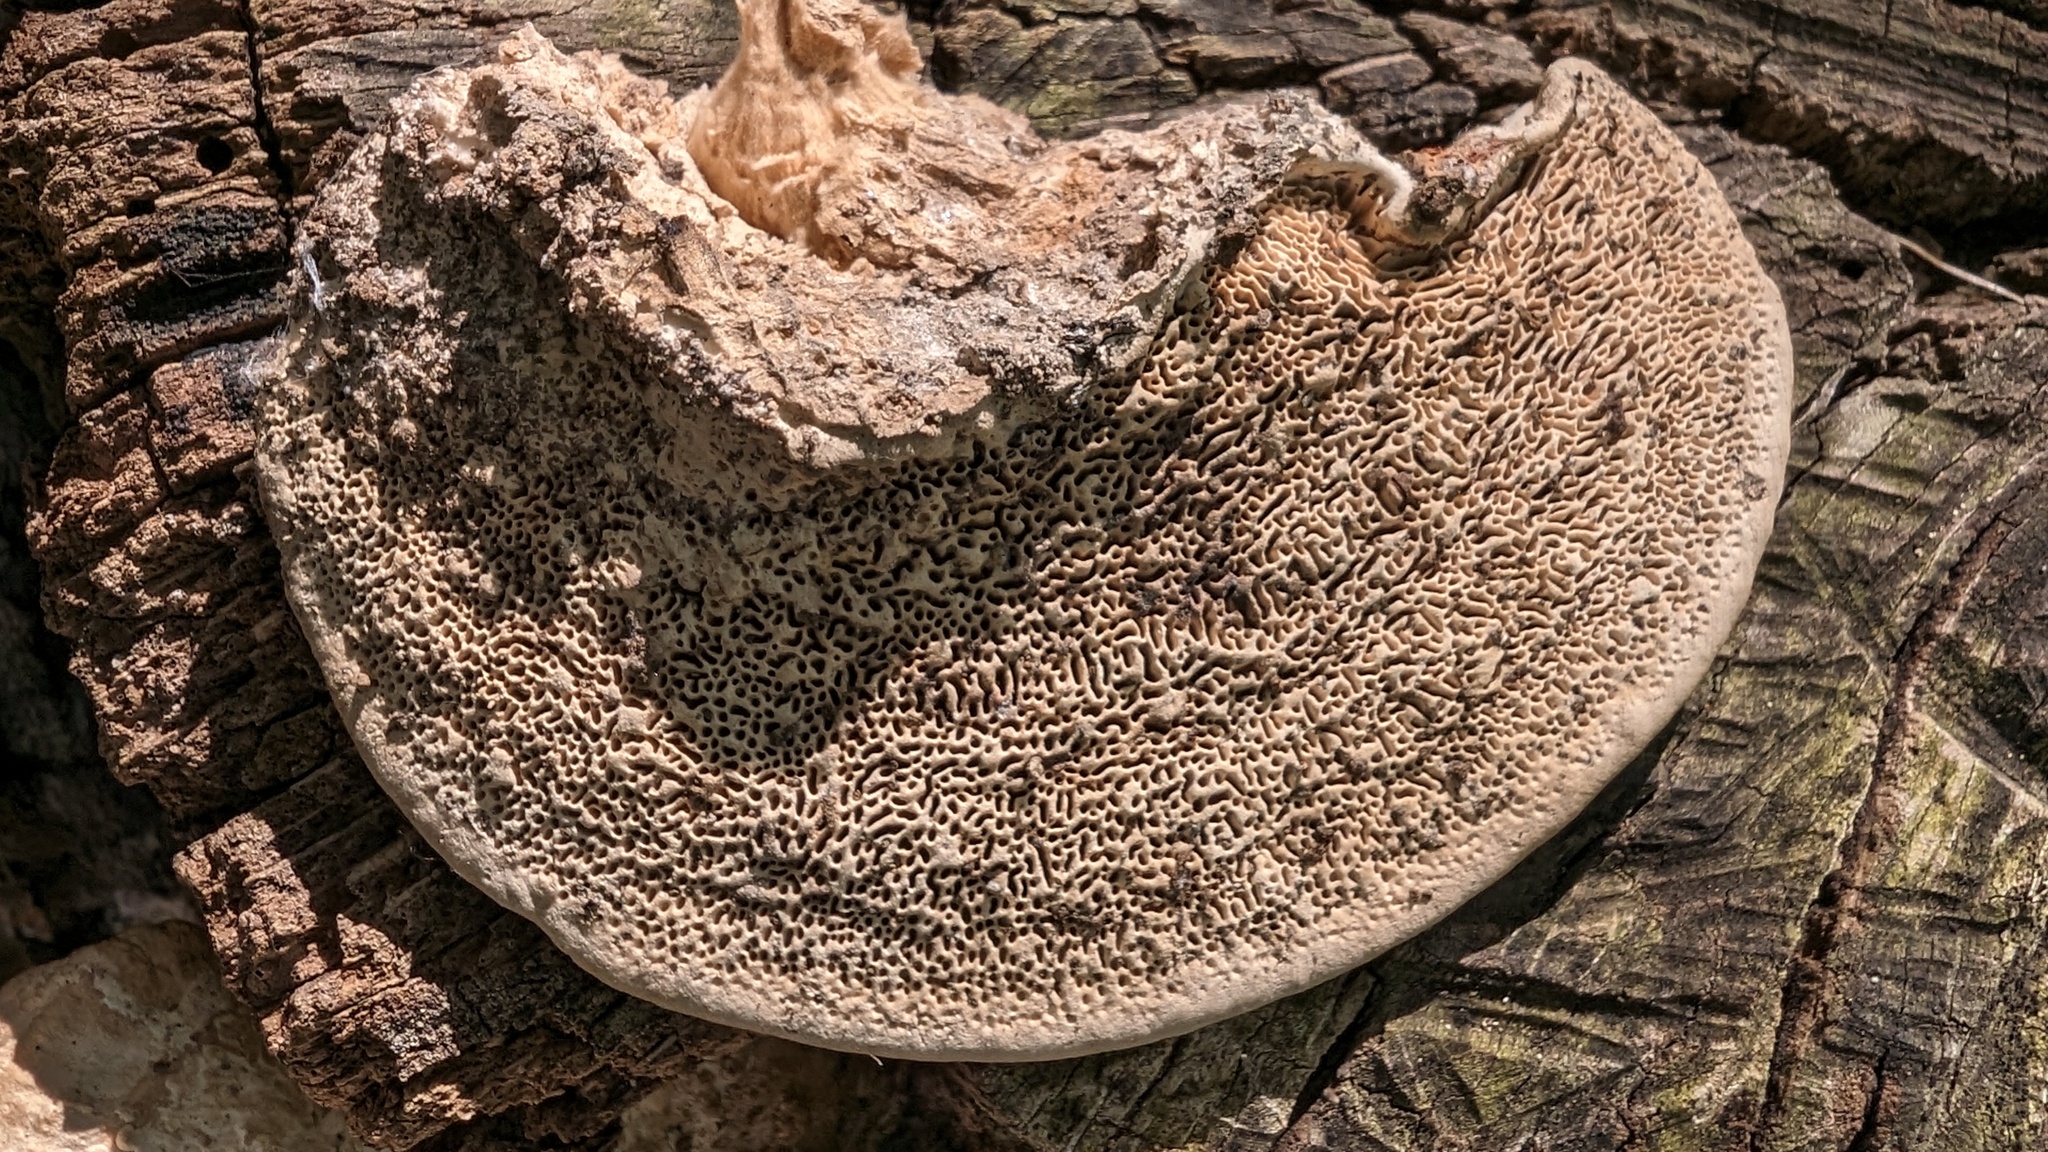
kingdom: Fungi
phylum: Basidiomycota
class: Agaricomycetes
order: Polyporales
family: Fomitopsidaceae
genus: Fomitopsis
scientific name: Fomitopsis
